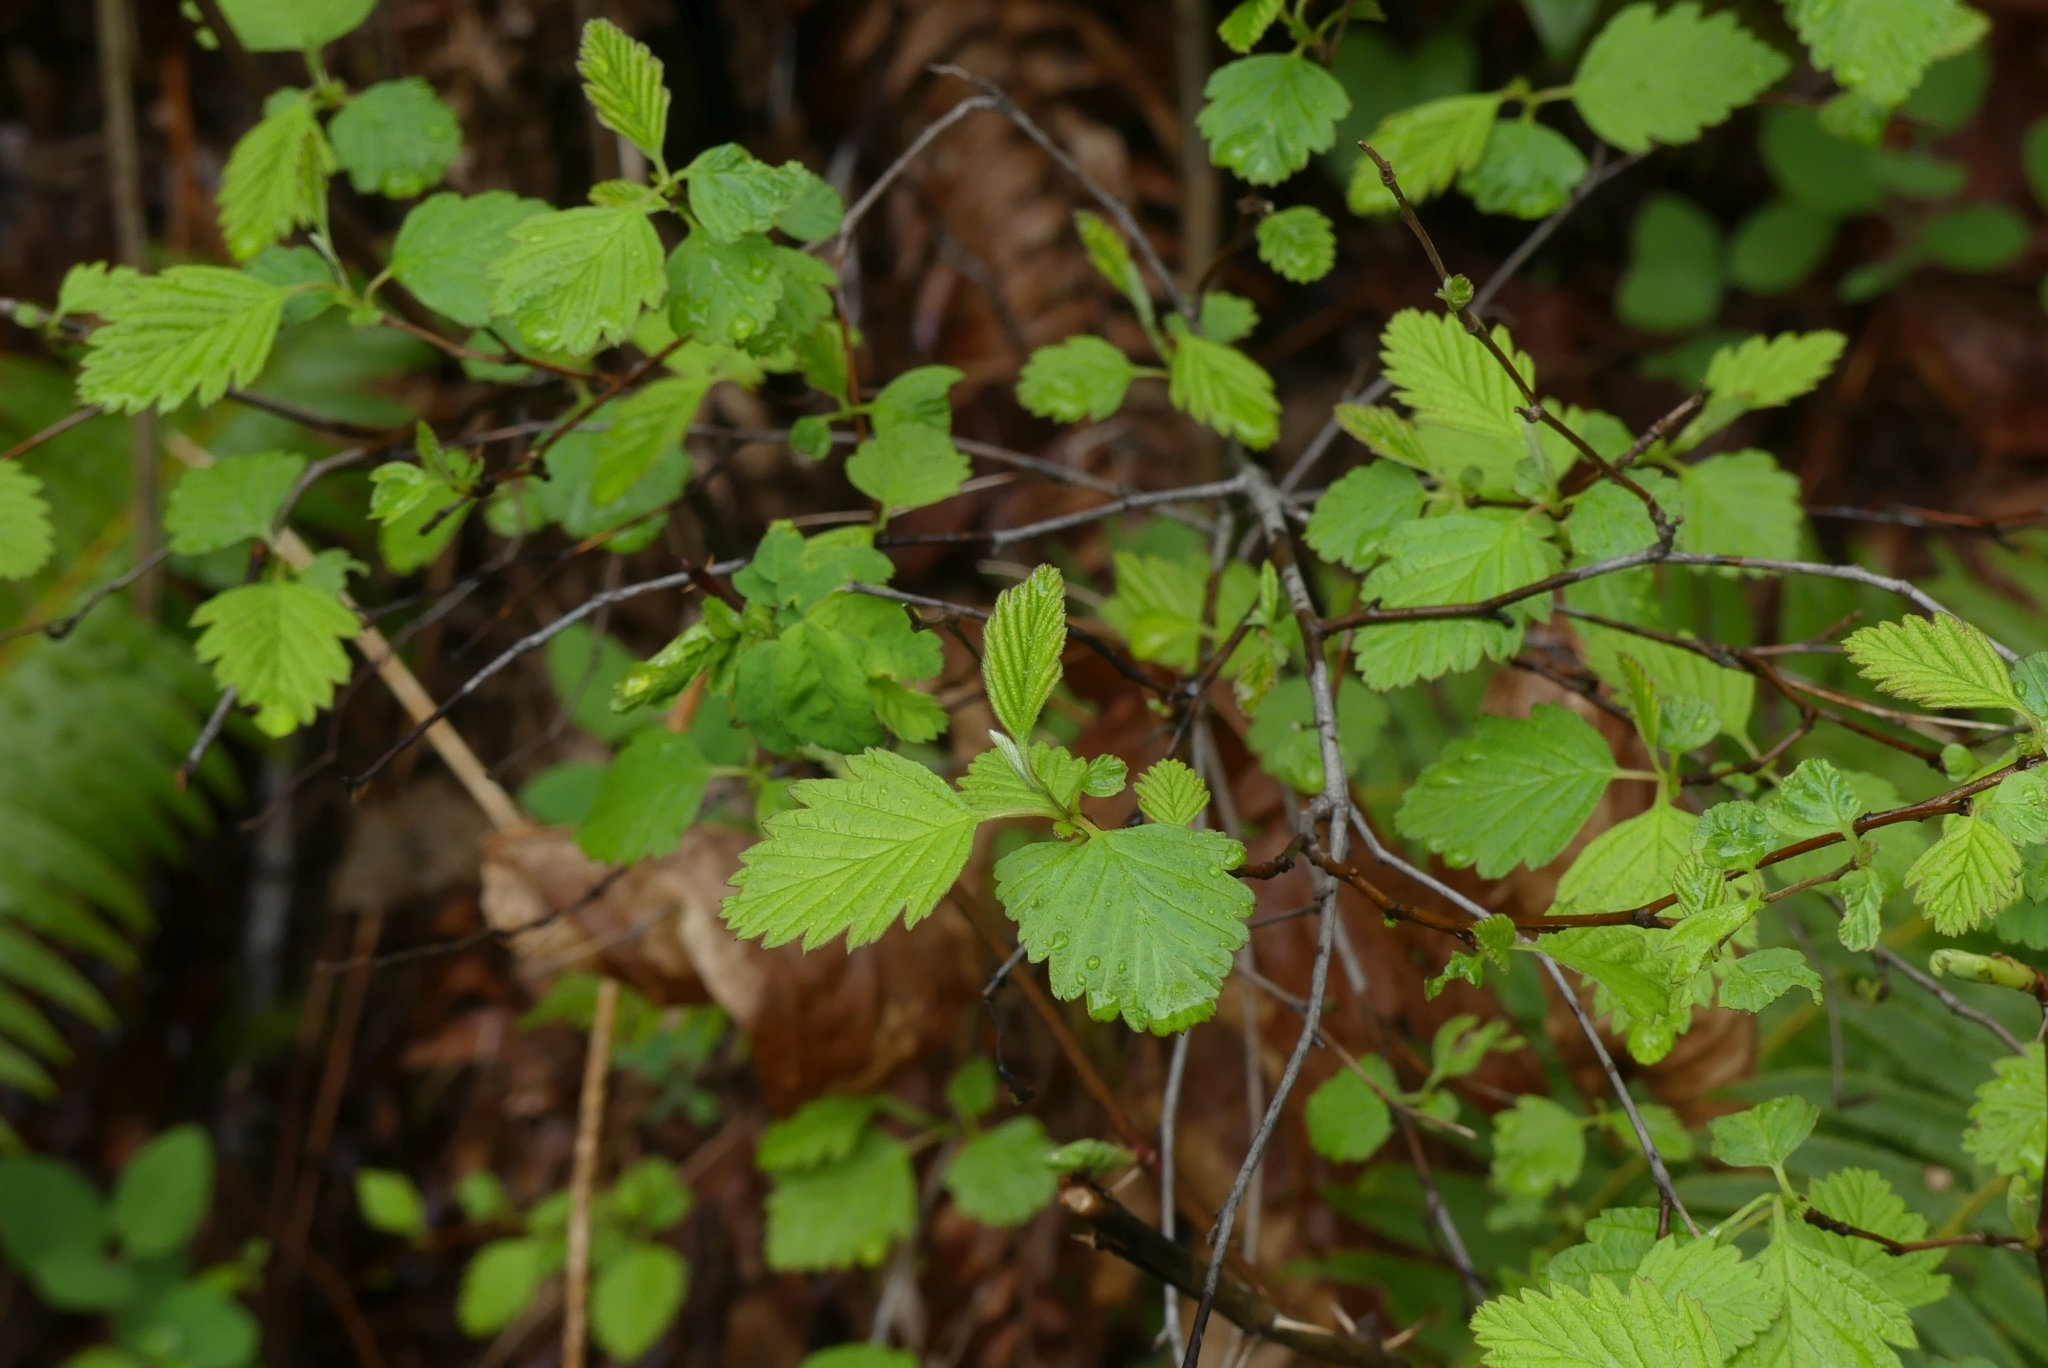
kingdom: Plantae
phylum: Tracheophyta
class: Magnoliopsida
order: Rosales
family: Rosaceae
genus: Holodiscus
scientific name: Holodiscus discolor
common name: Oceanspray
